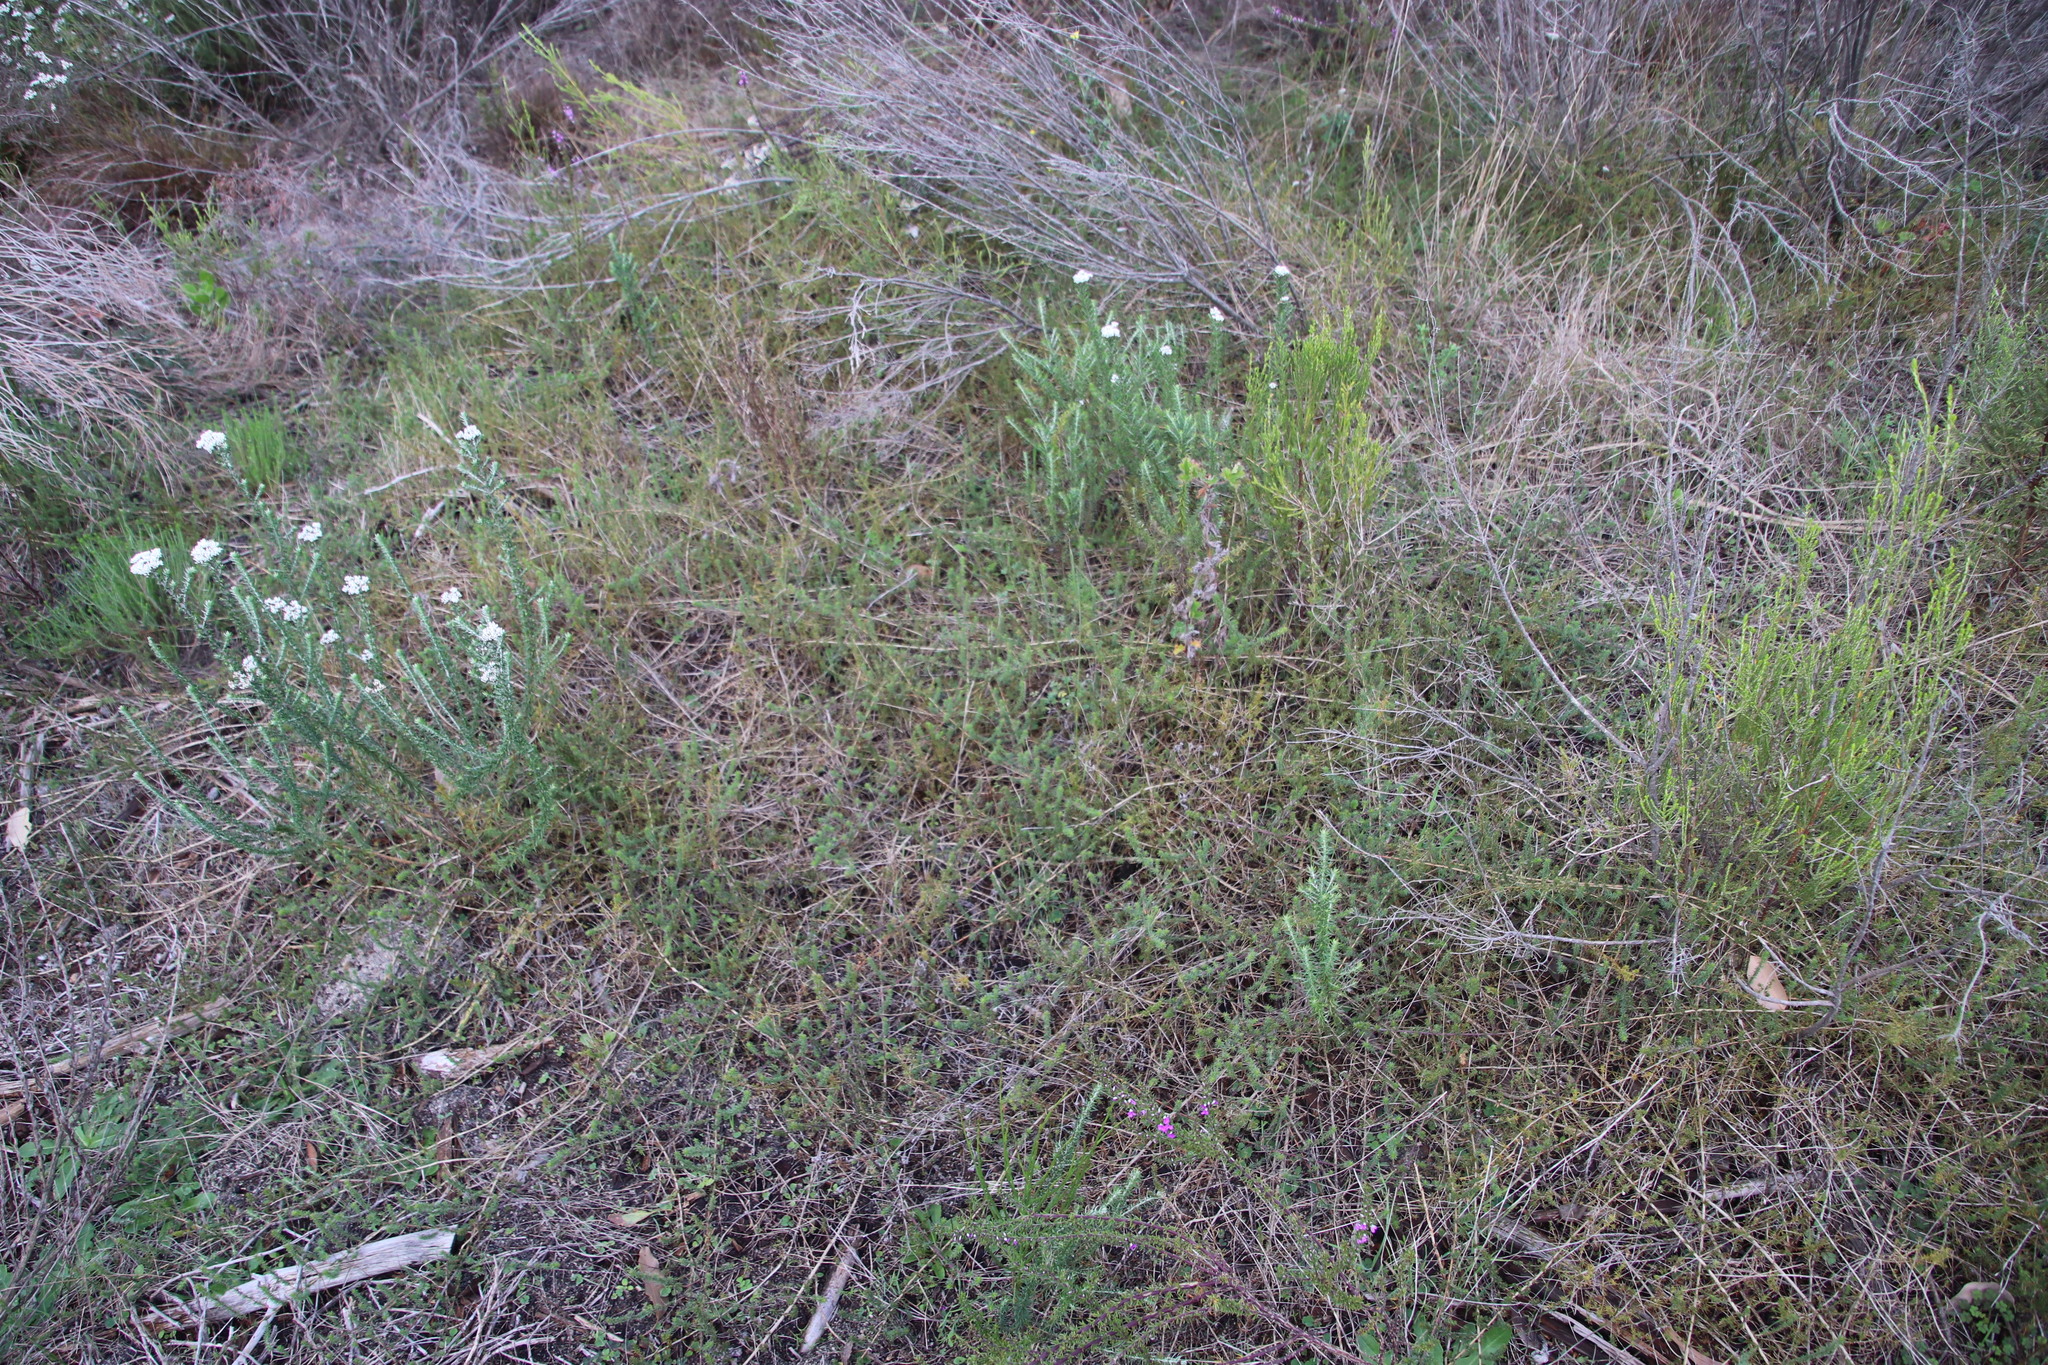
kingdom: Plantae
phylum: Tracheophyta
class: Magnoliopsida
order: Fabales
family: Fabaceae
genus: Aspalathus
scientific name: Aspalathus retroflexa
